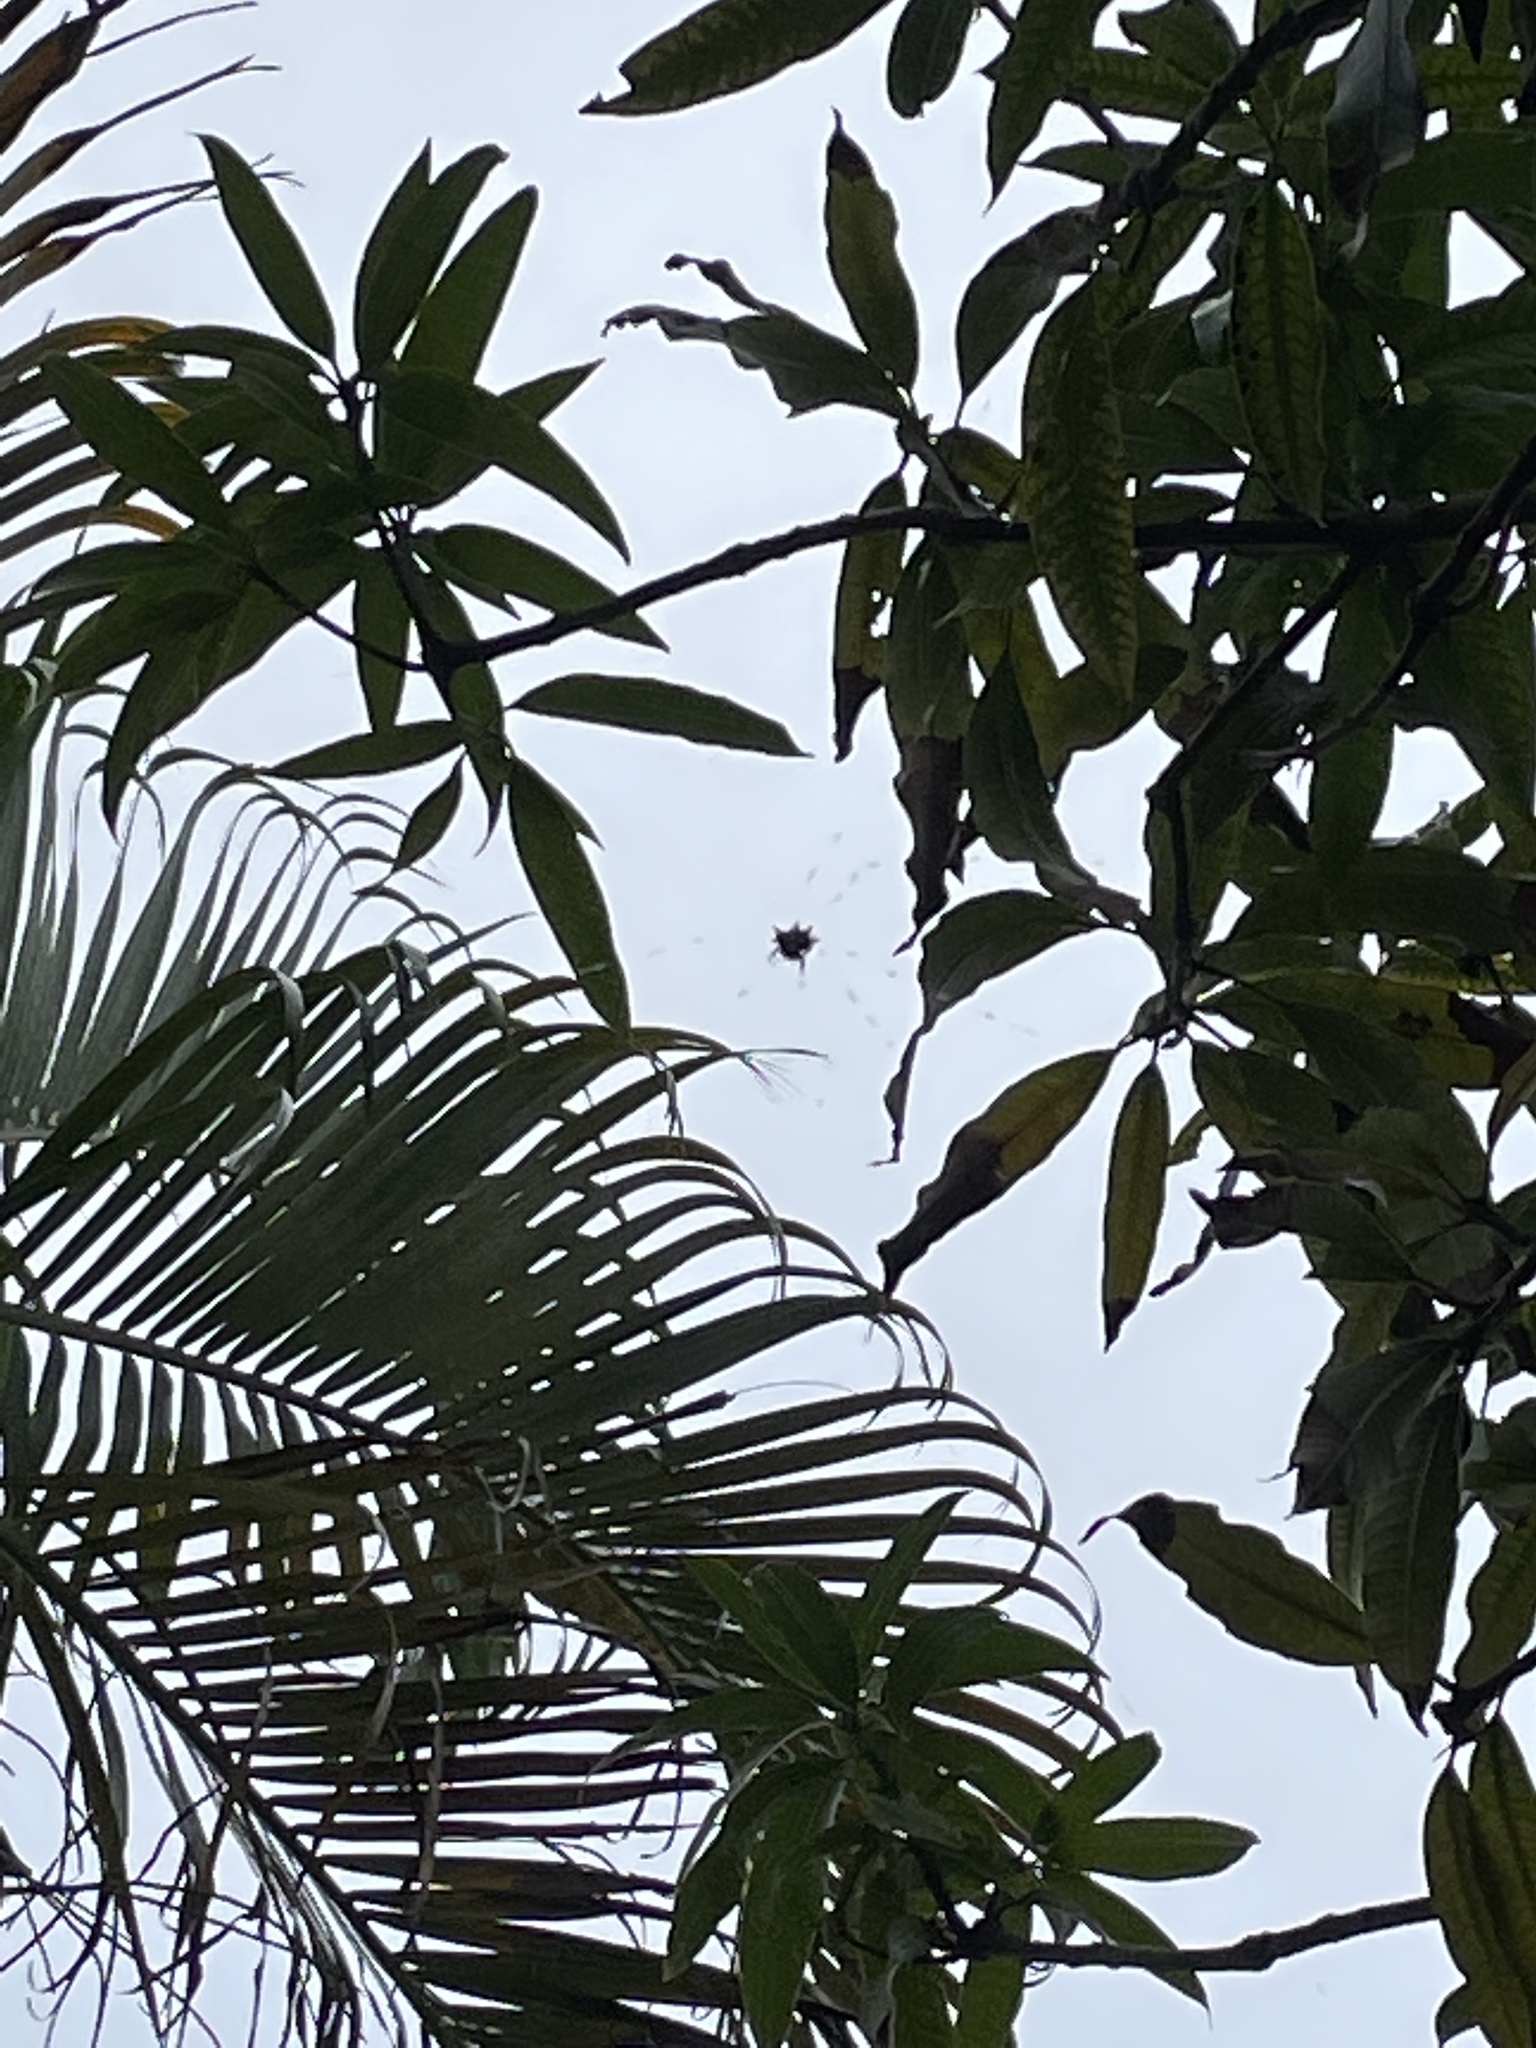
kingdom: Animalia
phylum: Arthropoda
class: Arachnida
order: Araneae
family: Araneidae
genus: Gasteracantha
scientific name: Gasteracantha cancriformis
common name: Orb weavers
